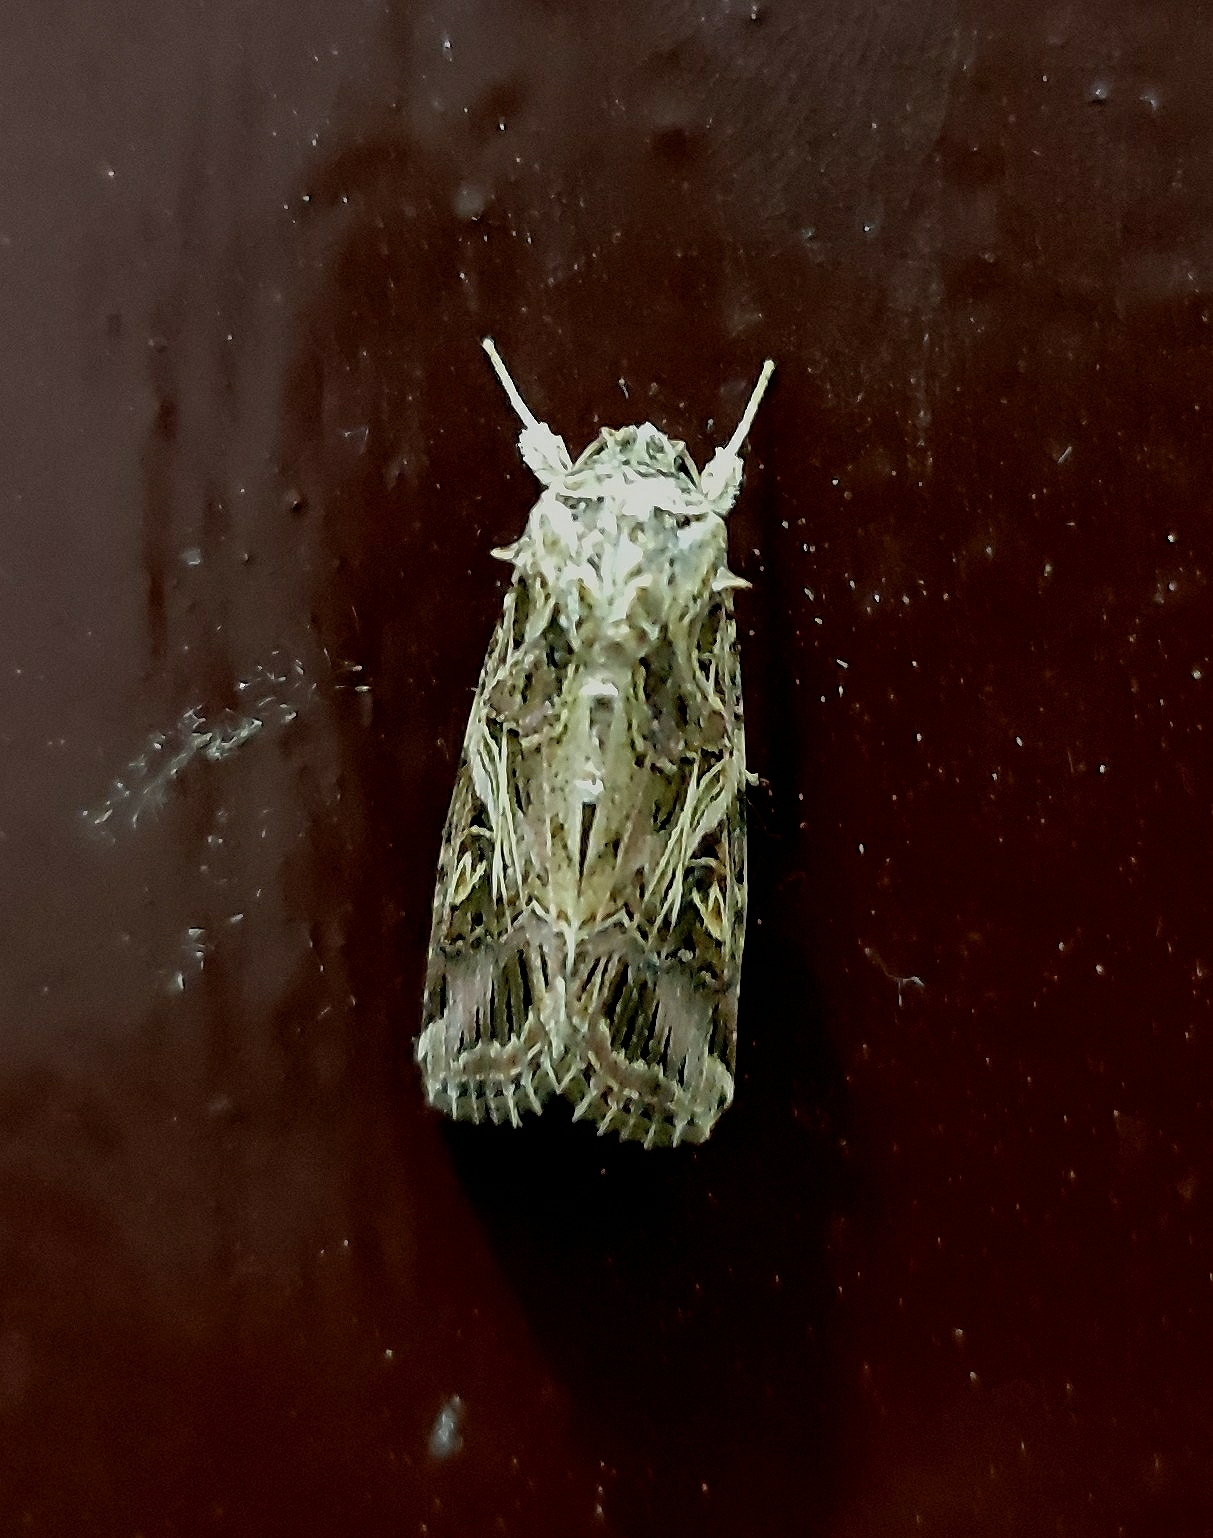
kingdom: Animalia
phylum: Arthropoda
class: Insecta
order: Lepidoptera
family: Noctuidae
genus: Spodoptera
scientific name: Spodoptera litura
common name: Asian cotton leafworm
